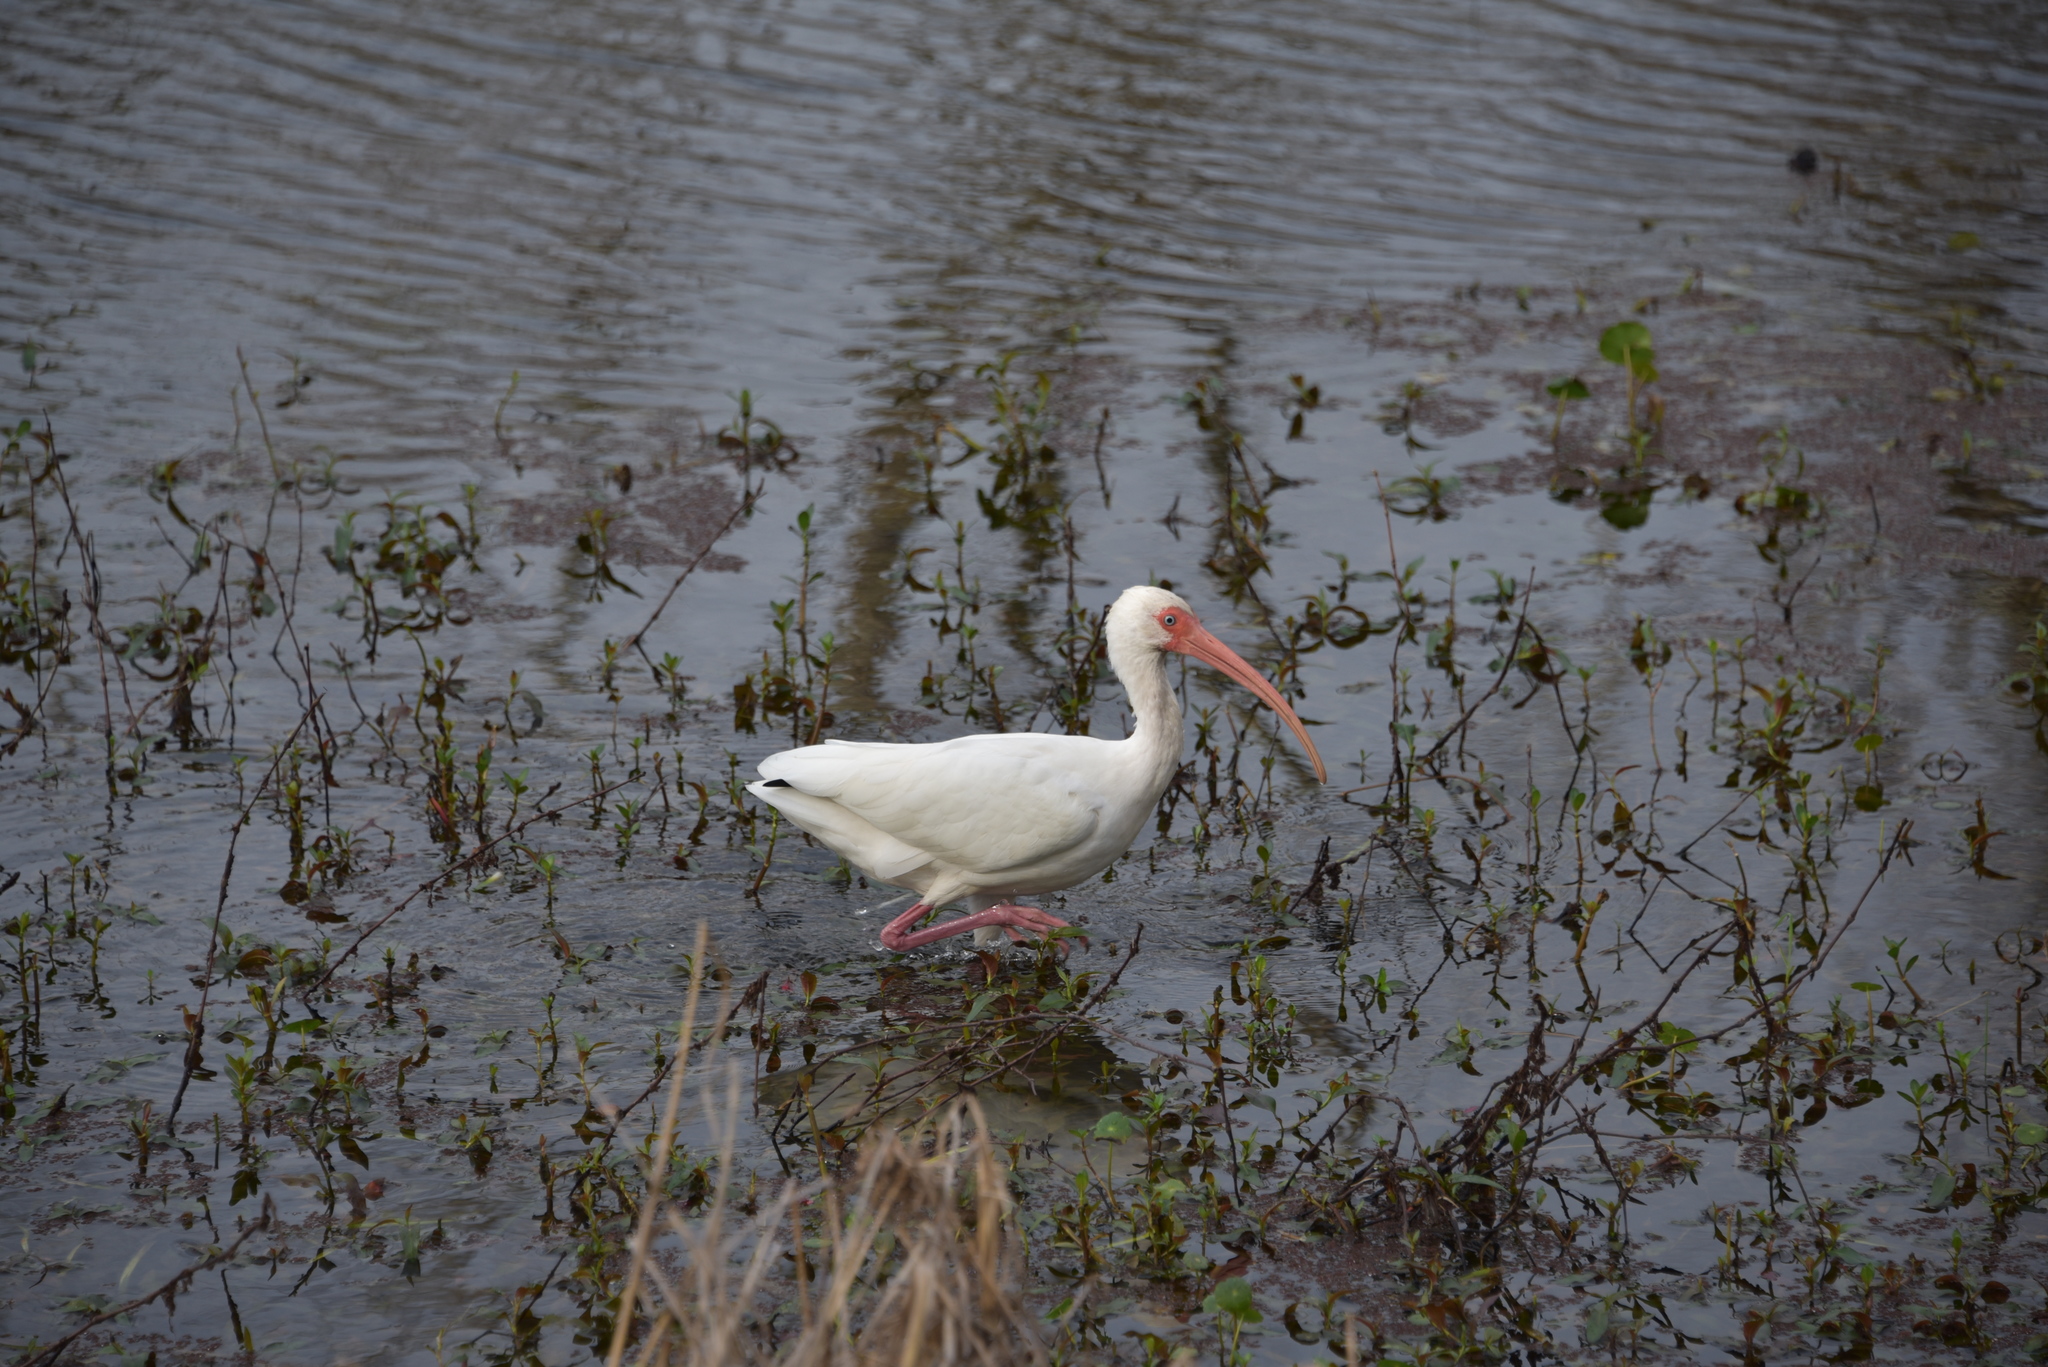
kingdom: Animalia
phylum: Chordata
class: Aves
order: Pelecaniformes
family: Threskiornithidae
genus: Eudocimus
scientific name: Eudocimus albus
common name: White ibis
